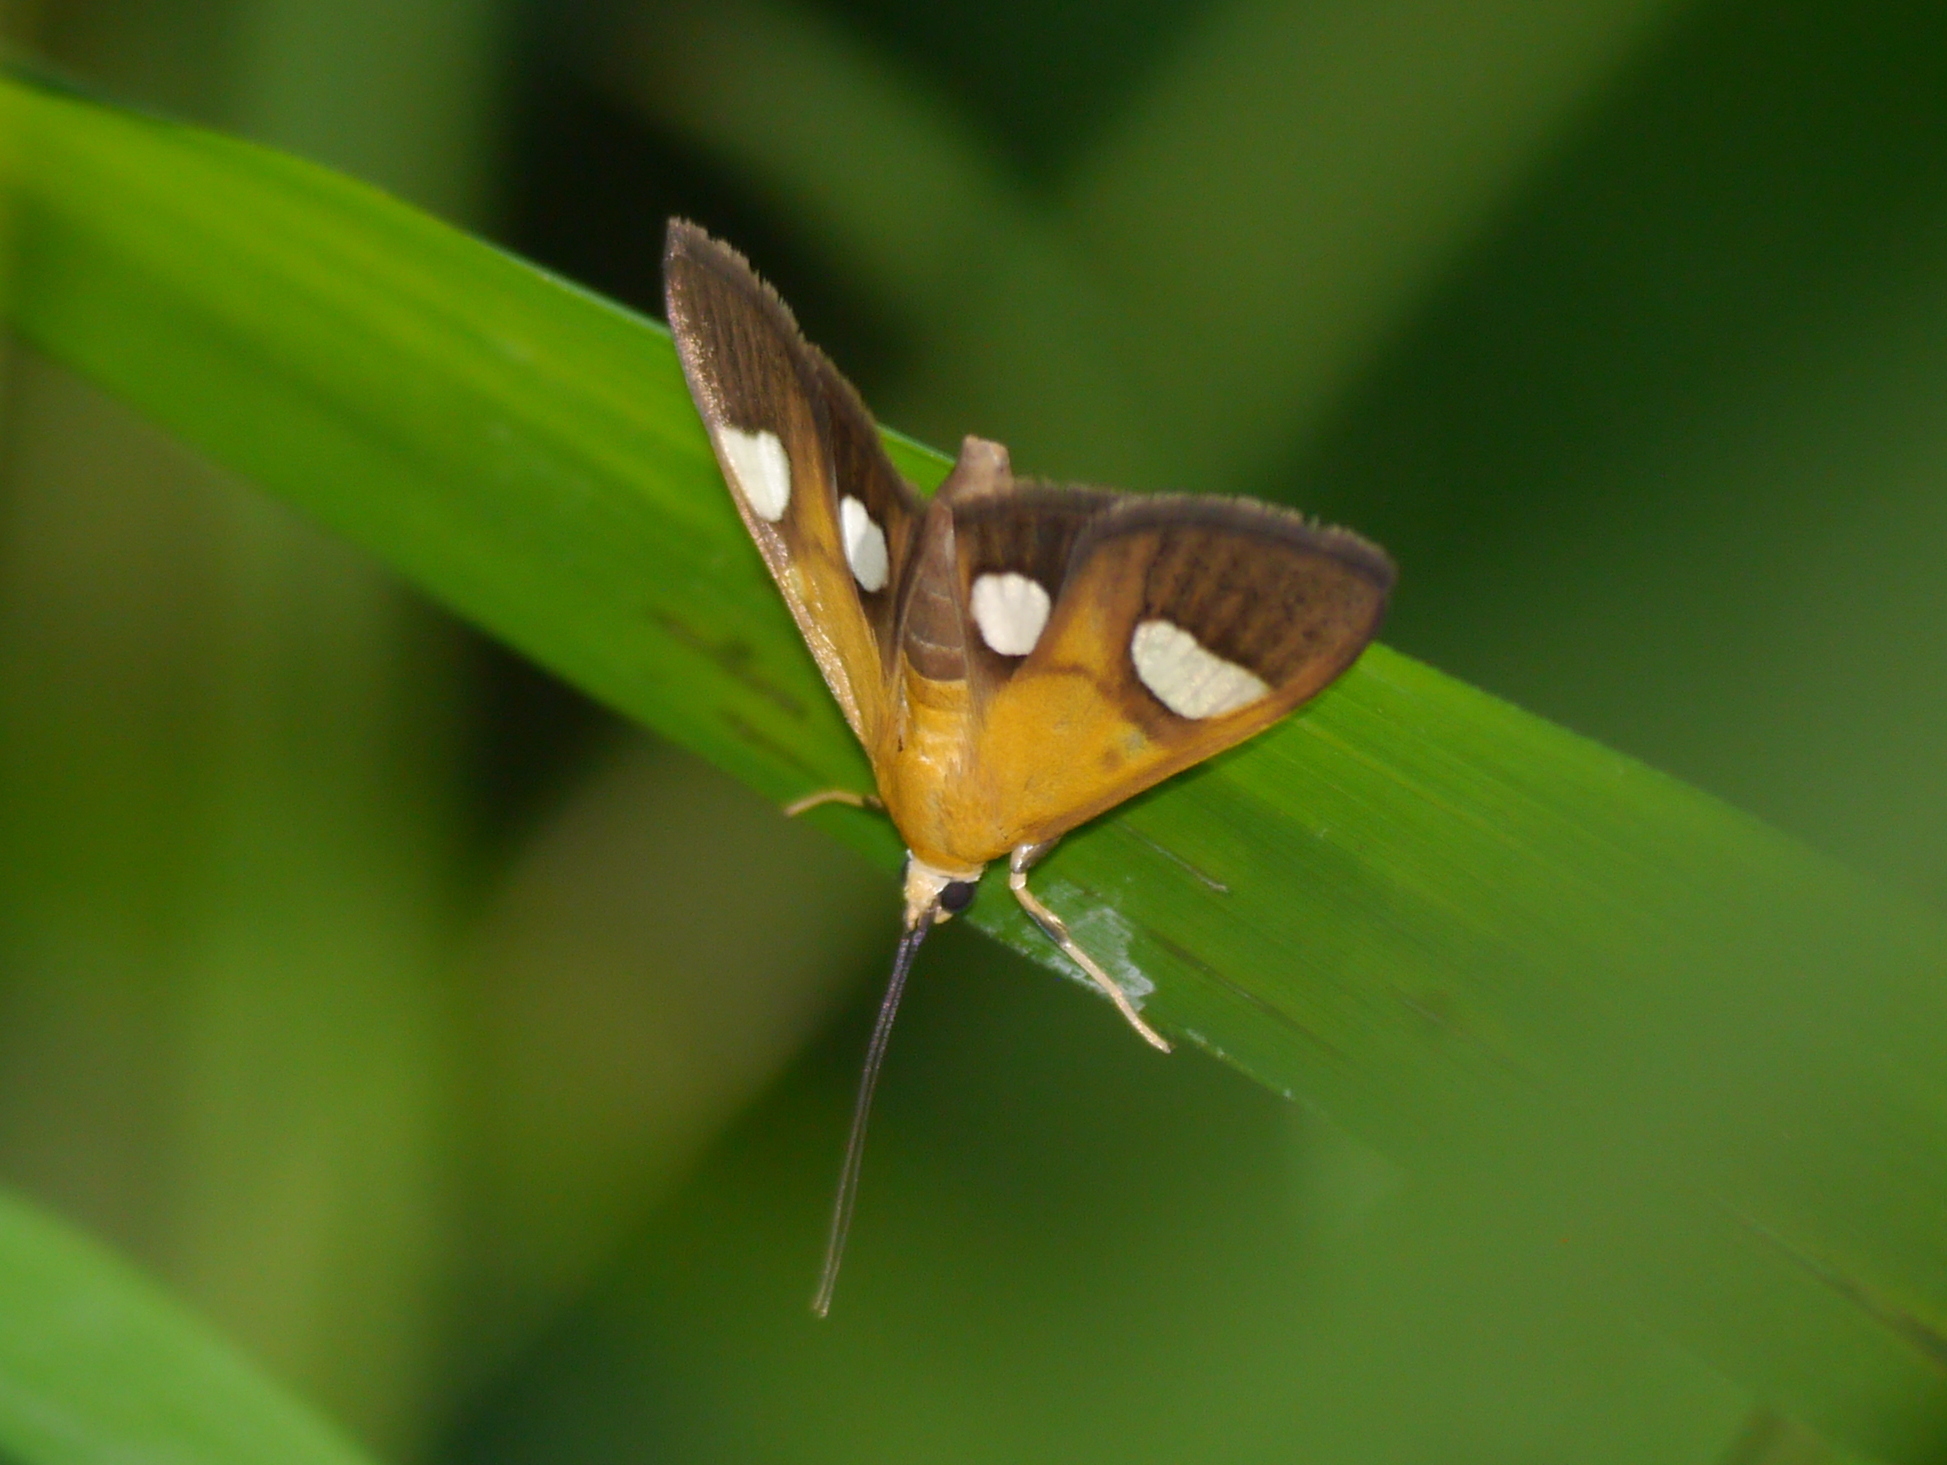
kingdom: Animalia
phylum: Arthropoda
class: Insecta
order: Lepidoptera
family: Crambidae
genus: Ulopeza
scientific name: Ulopeza flavicepsalis
